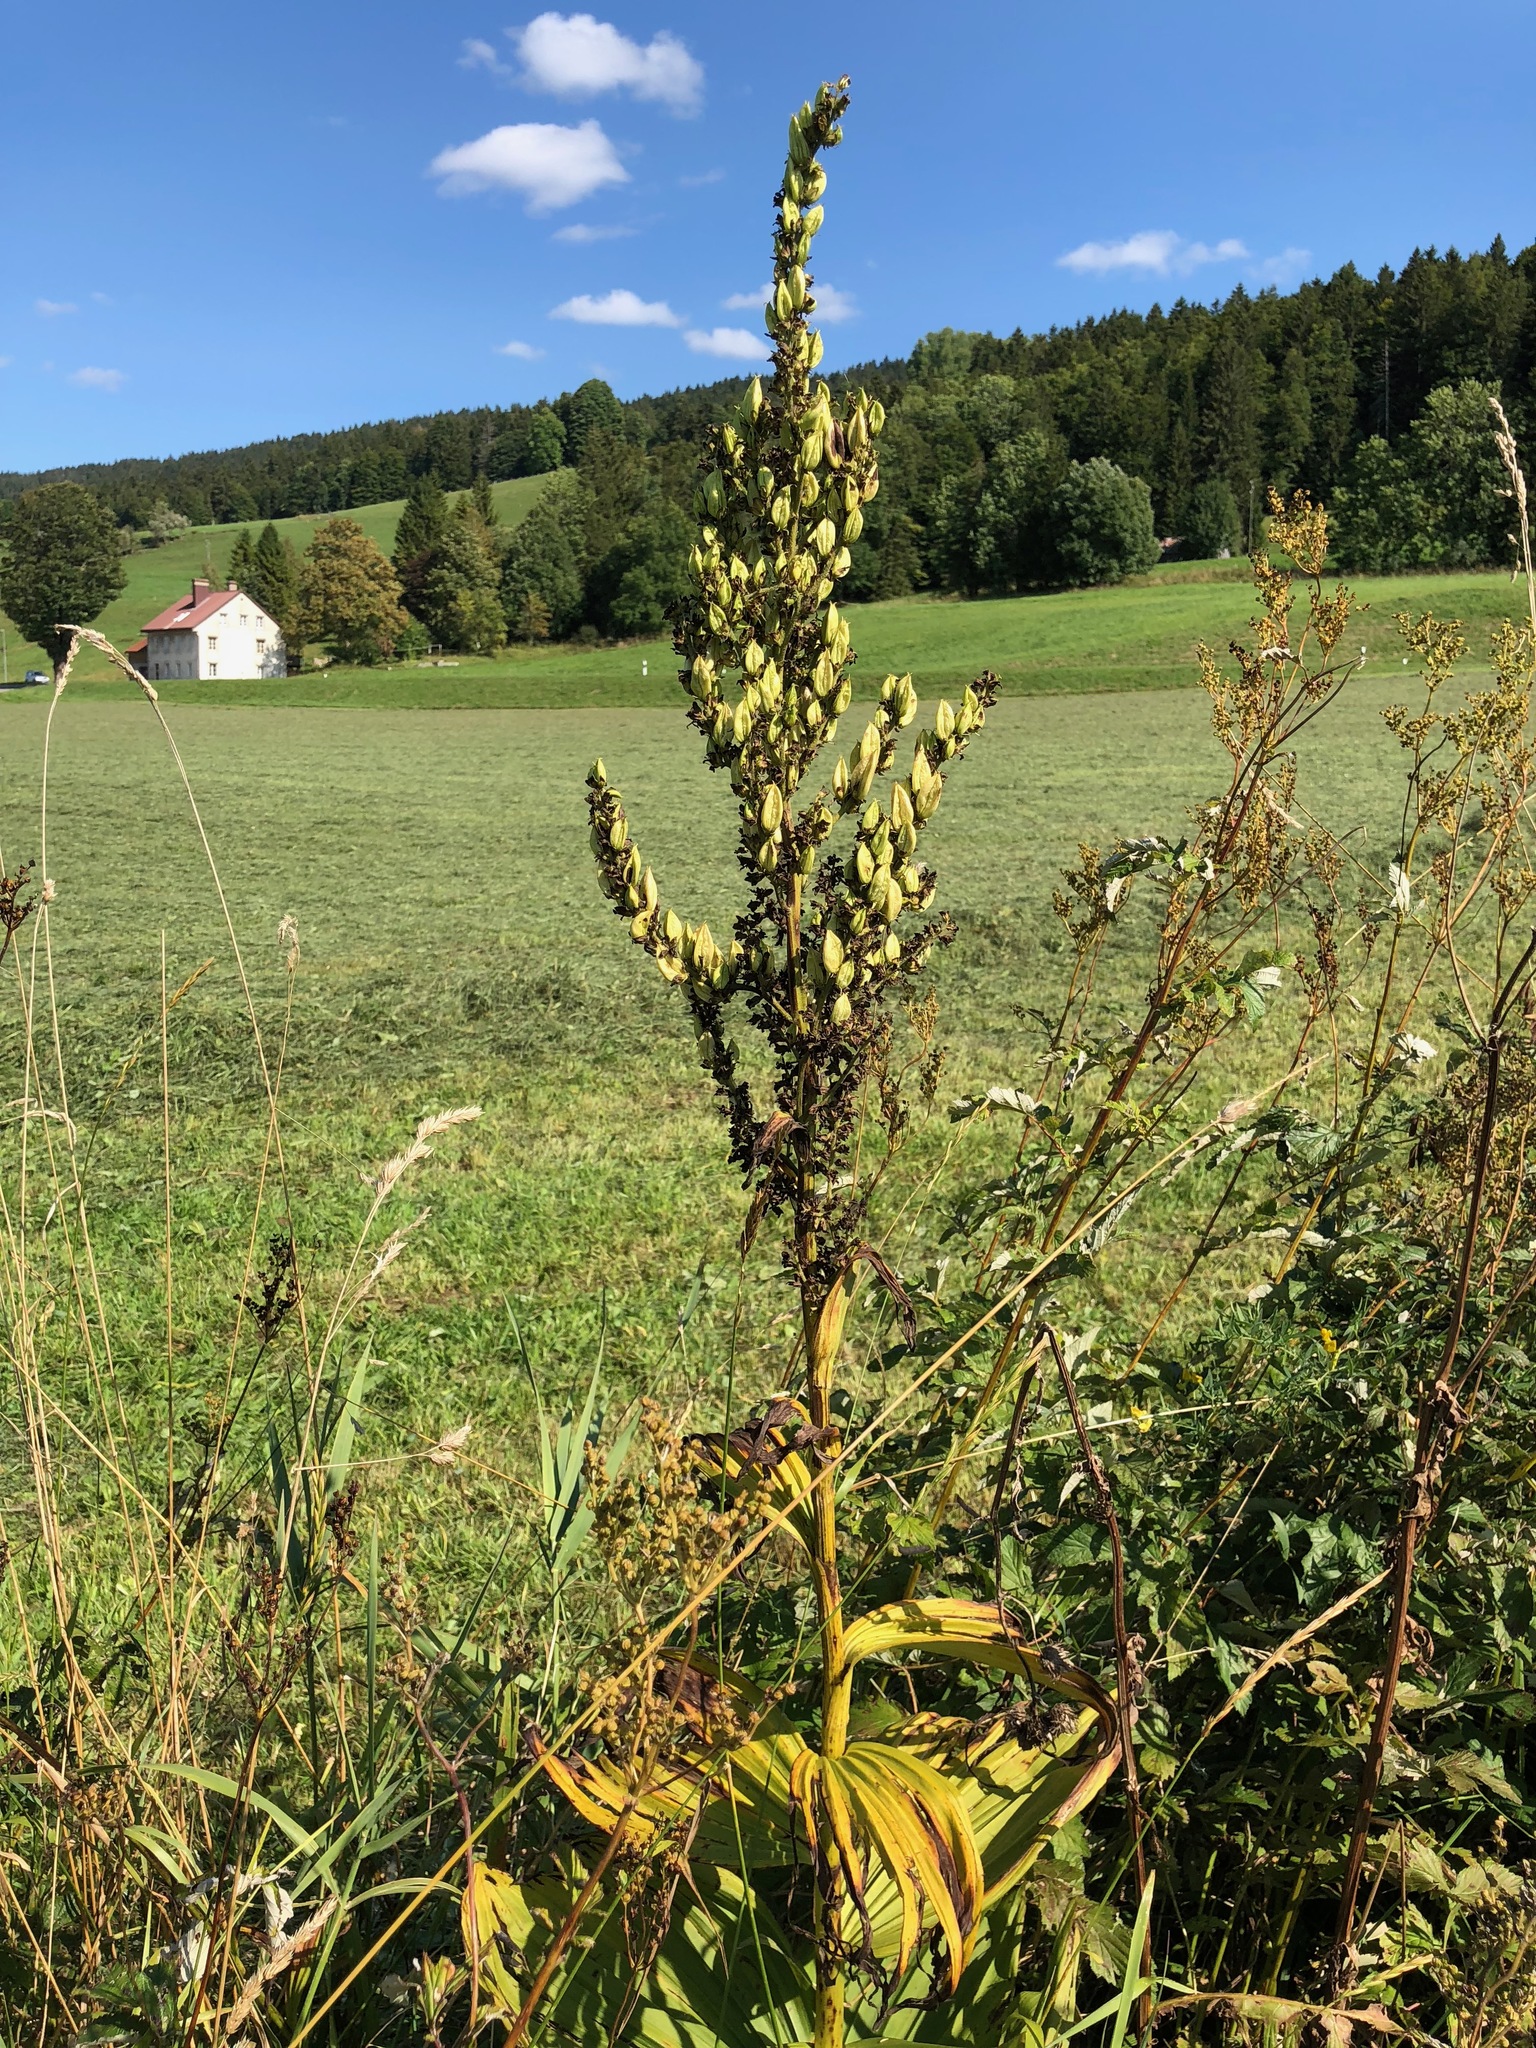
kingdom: Plantae
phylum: Tracheophyta
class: Liliopsida
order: Liliales
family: Melanthiaceae
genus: Veratrum
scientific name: Veratrum album
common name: White veratrum
